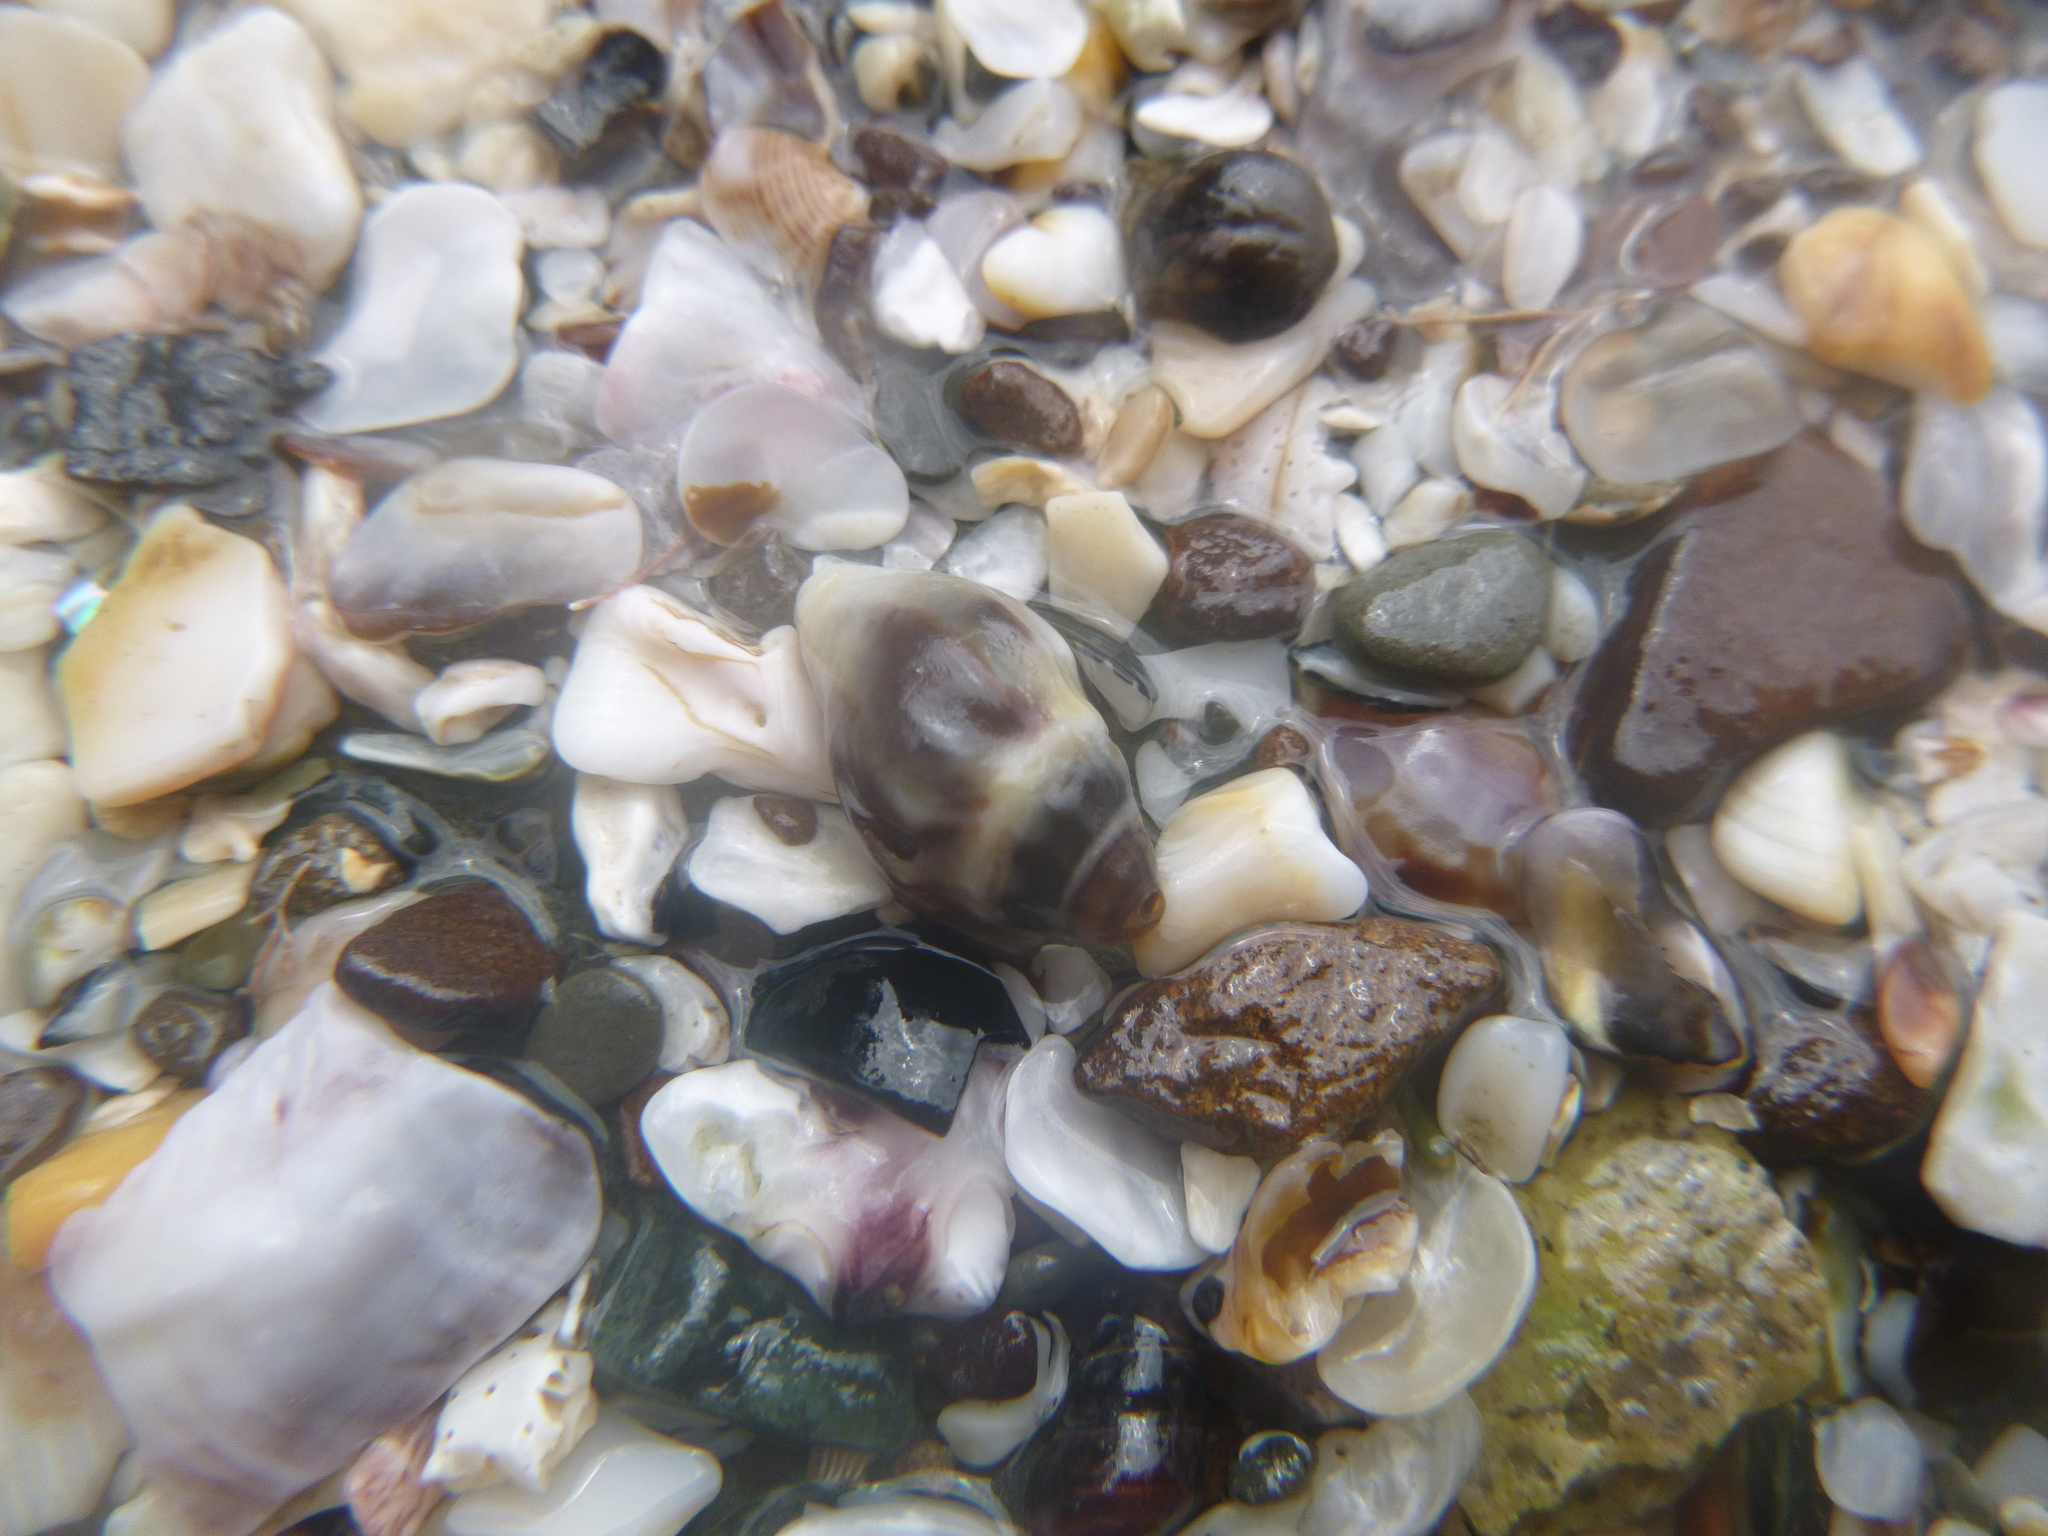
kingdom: Animalia
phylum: Mollusca
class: Gastropoda
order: Neogastropoda
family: Cominellidae
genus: Cominella
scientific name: Cominella glandiformis
